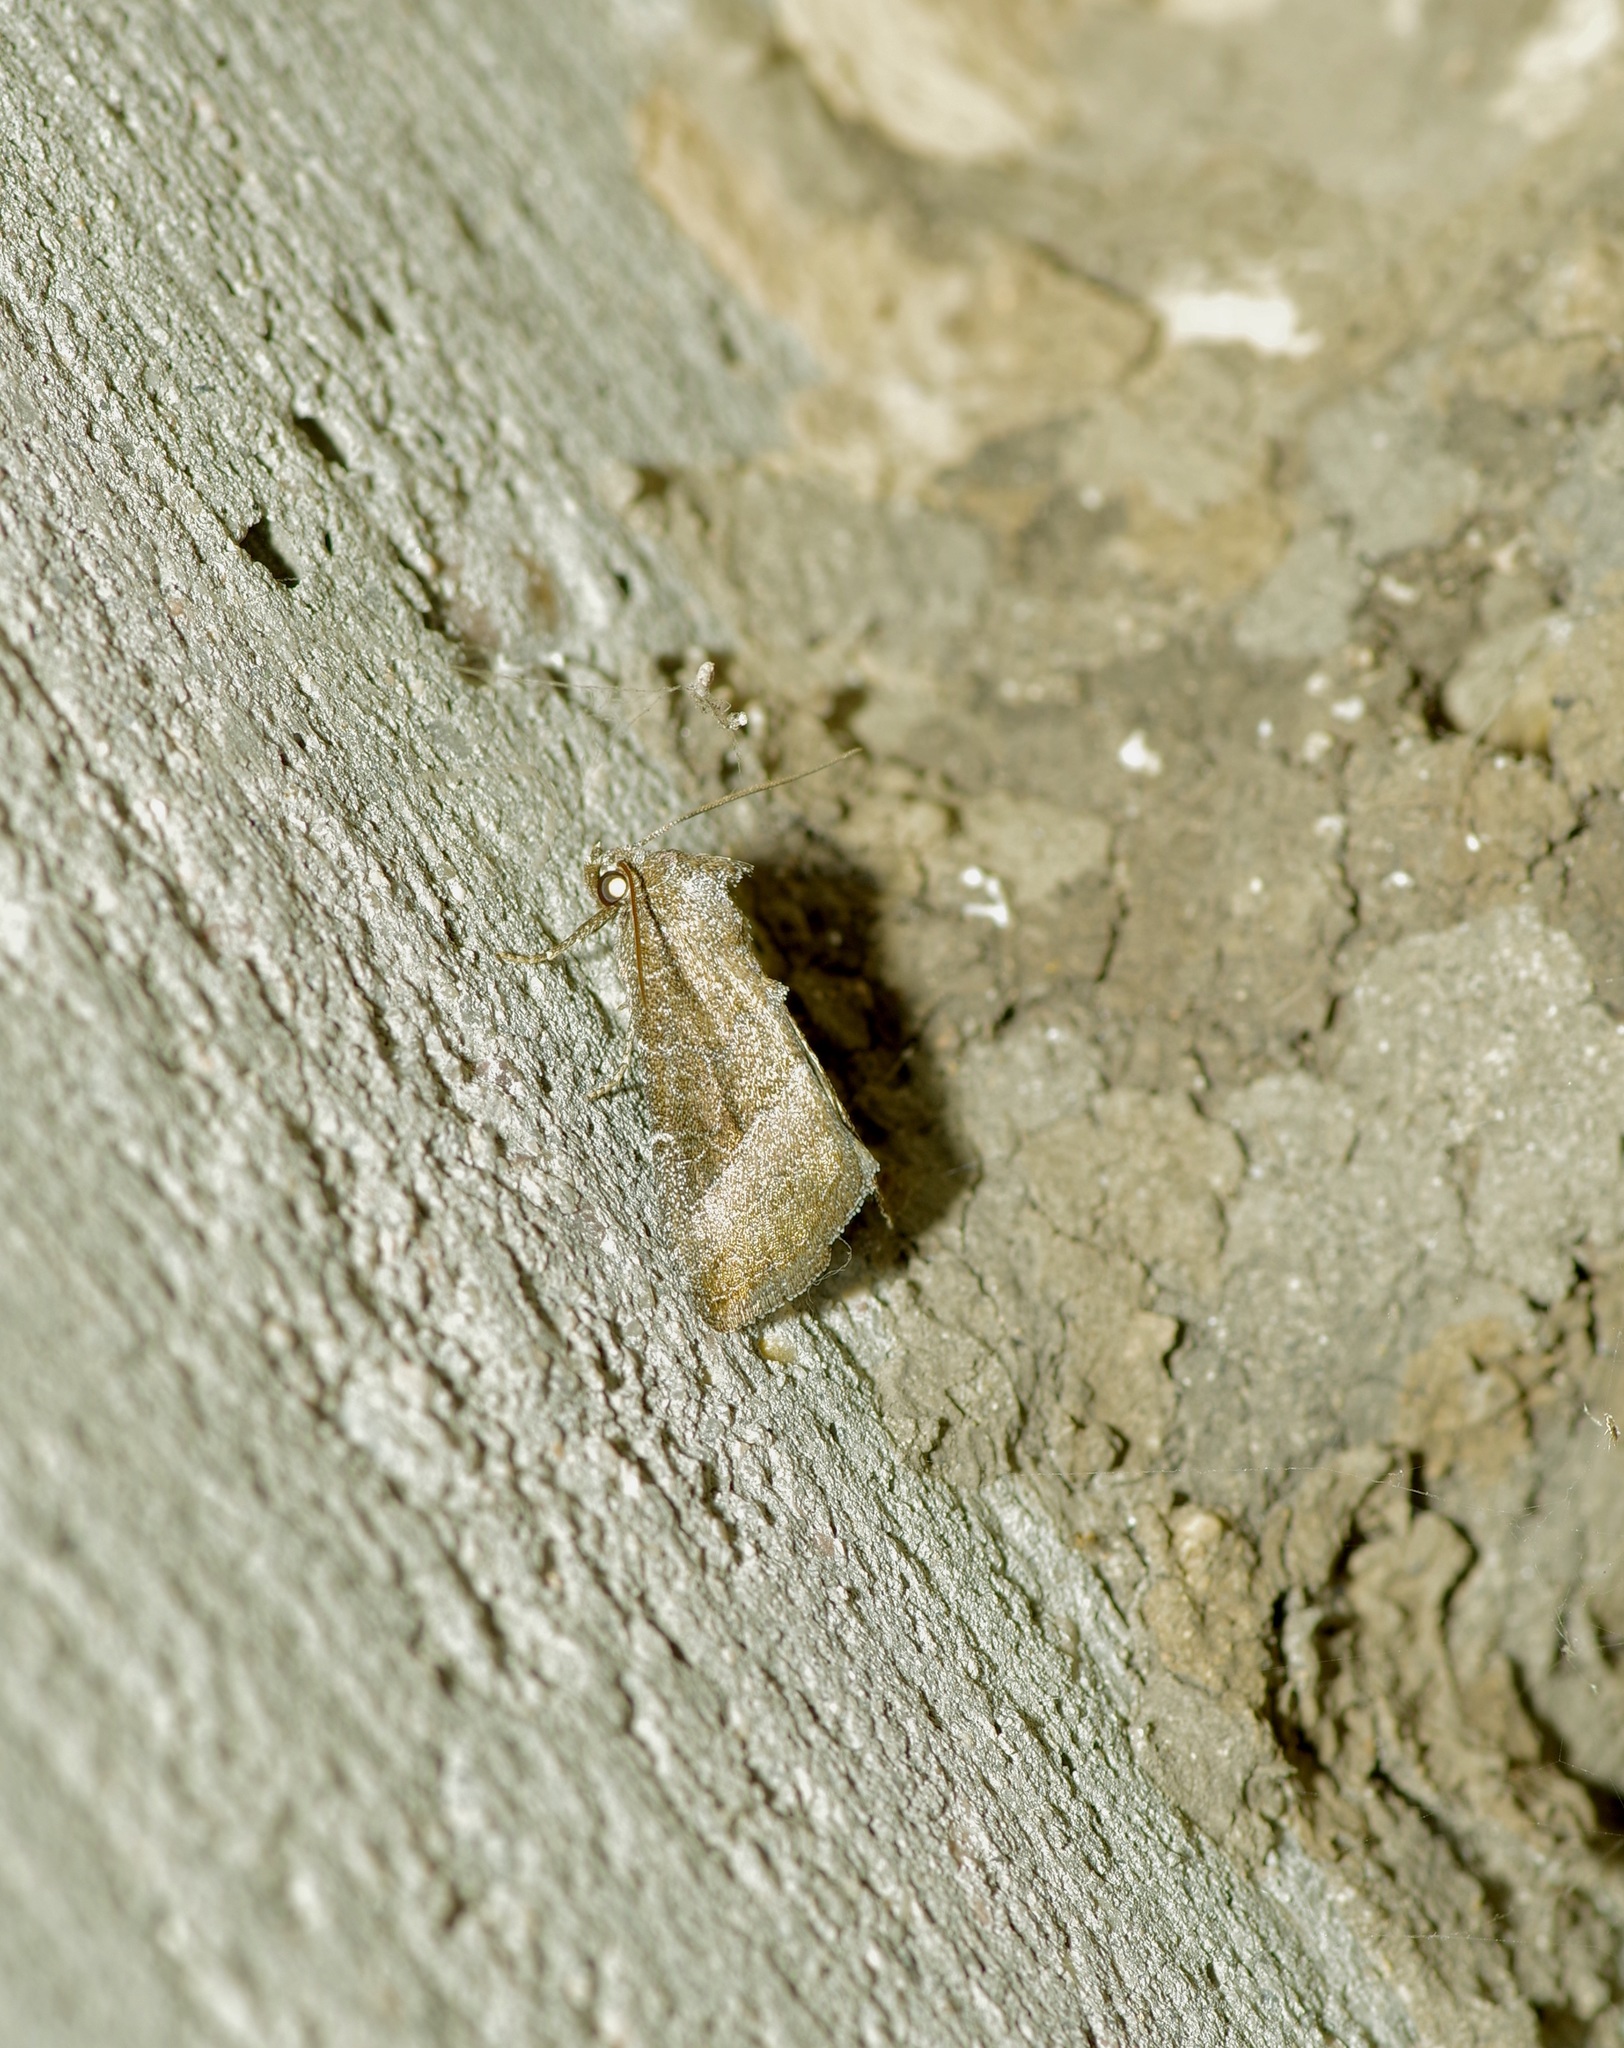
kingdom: Animalia
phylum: Arthropoda
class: Insecta
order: Lepidoptera
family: Noctuidae
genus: Ogdoconta
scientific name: Ogdoconta cinereola
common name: Common pinkband
